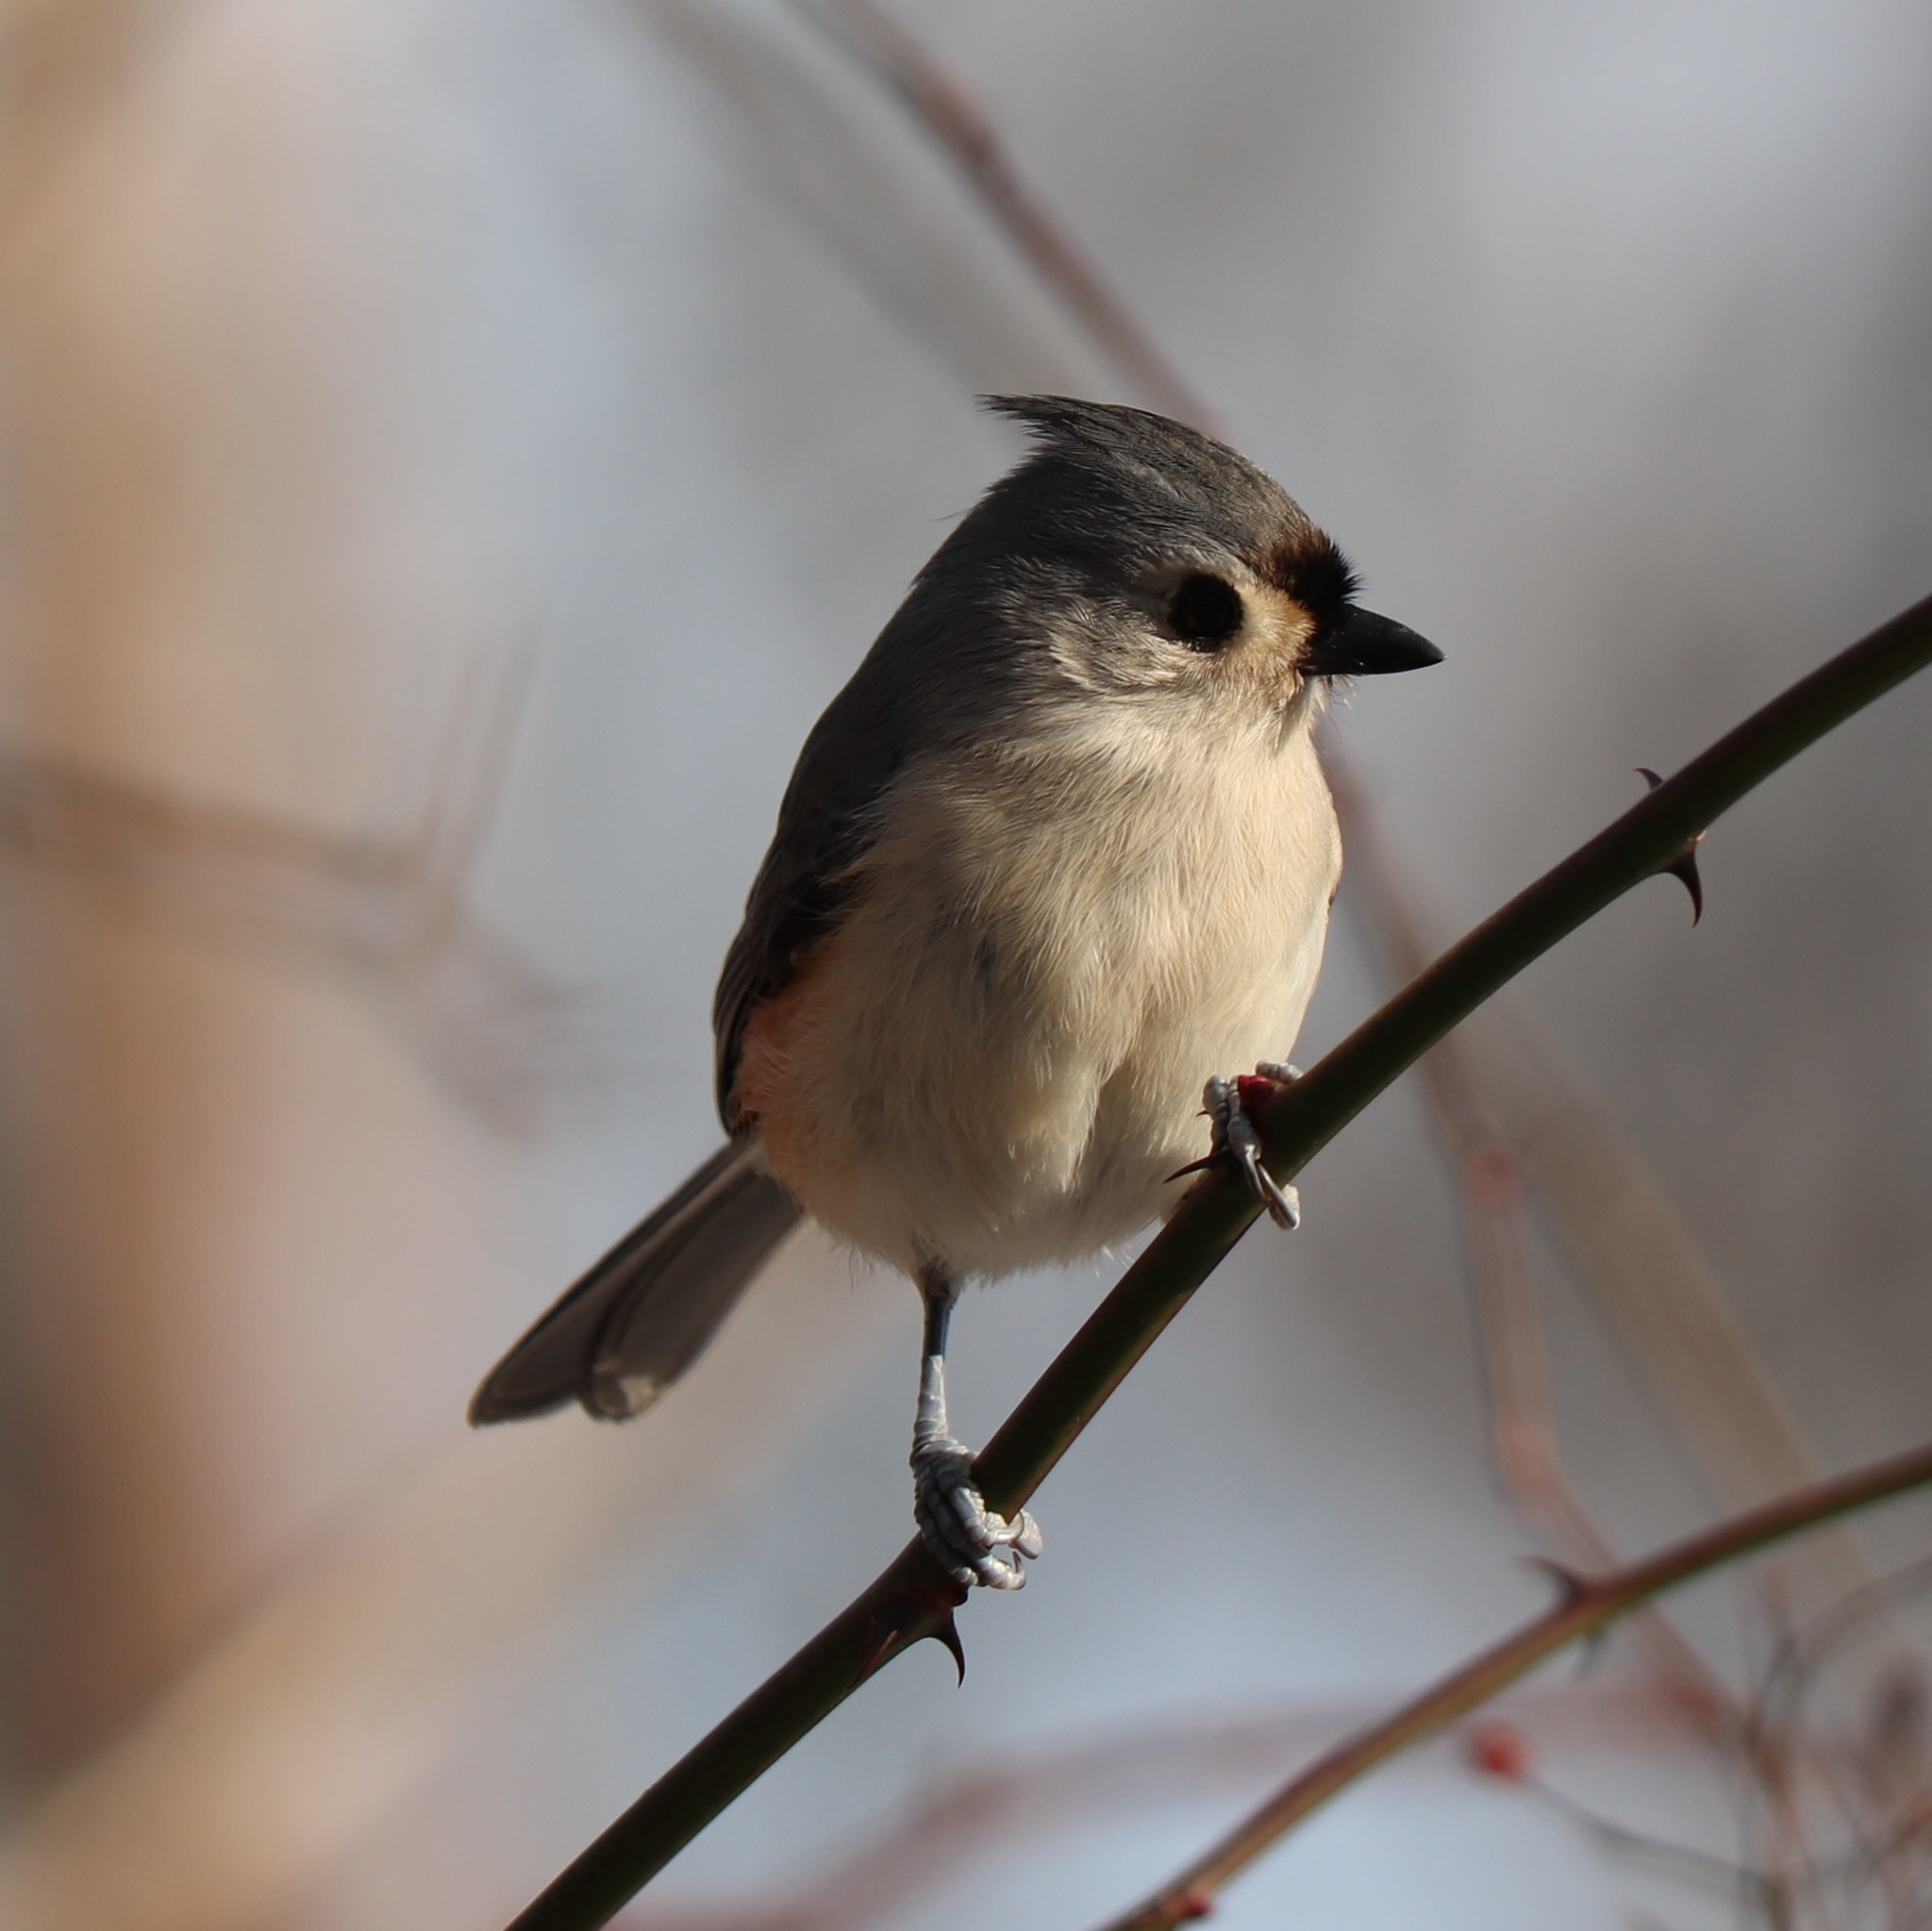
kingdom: Animalia
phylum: Chordata
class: Aves
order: Passeriformes
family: Paridae
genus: Baeolophus
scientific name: Baeolophus bicolor
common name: Tufted titmouse
